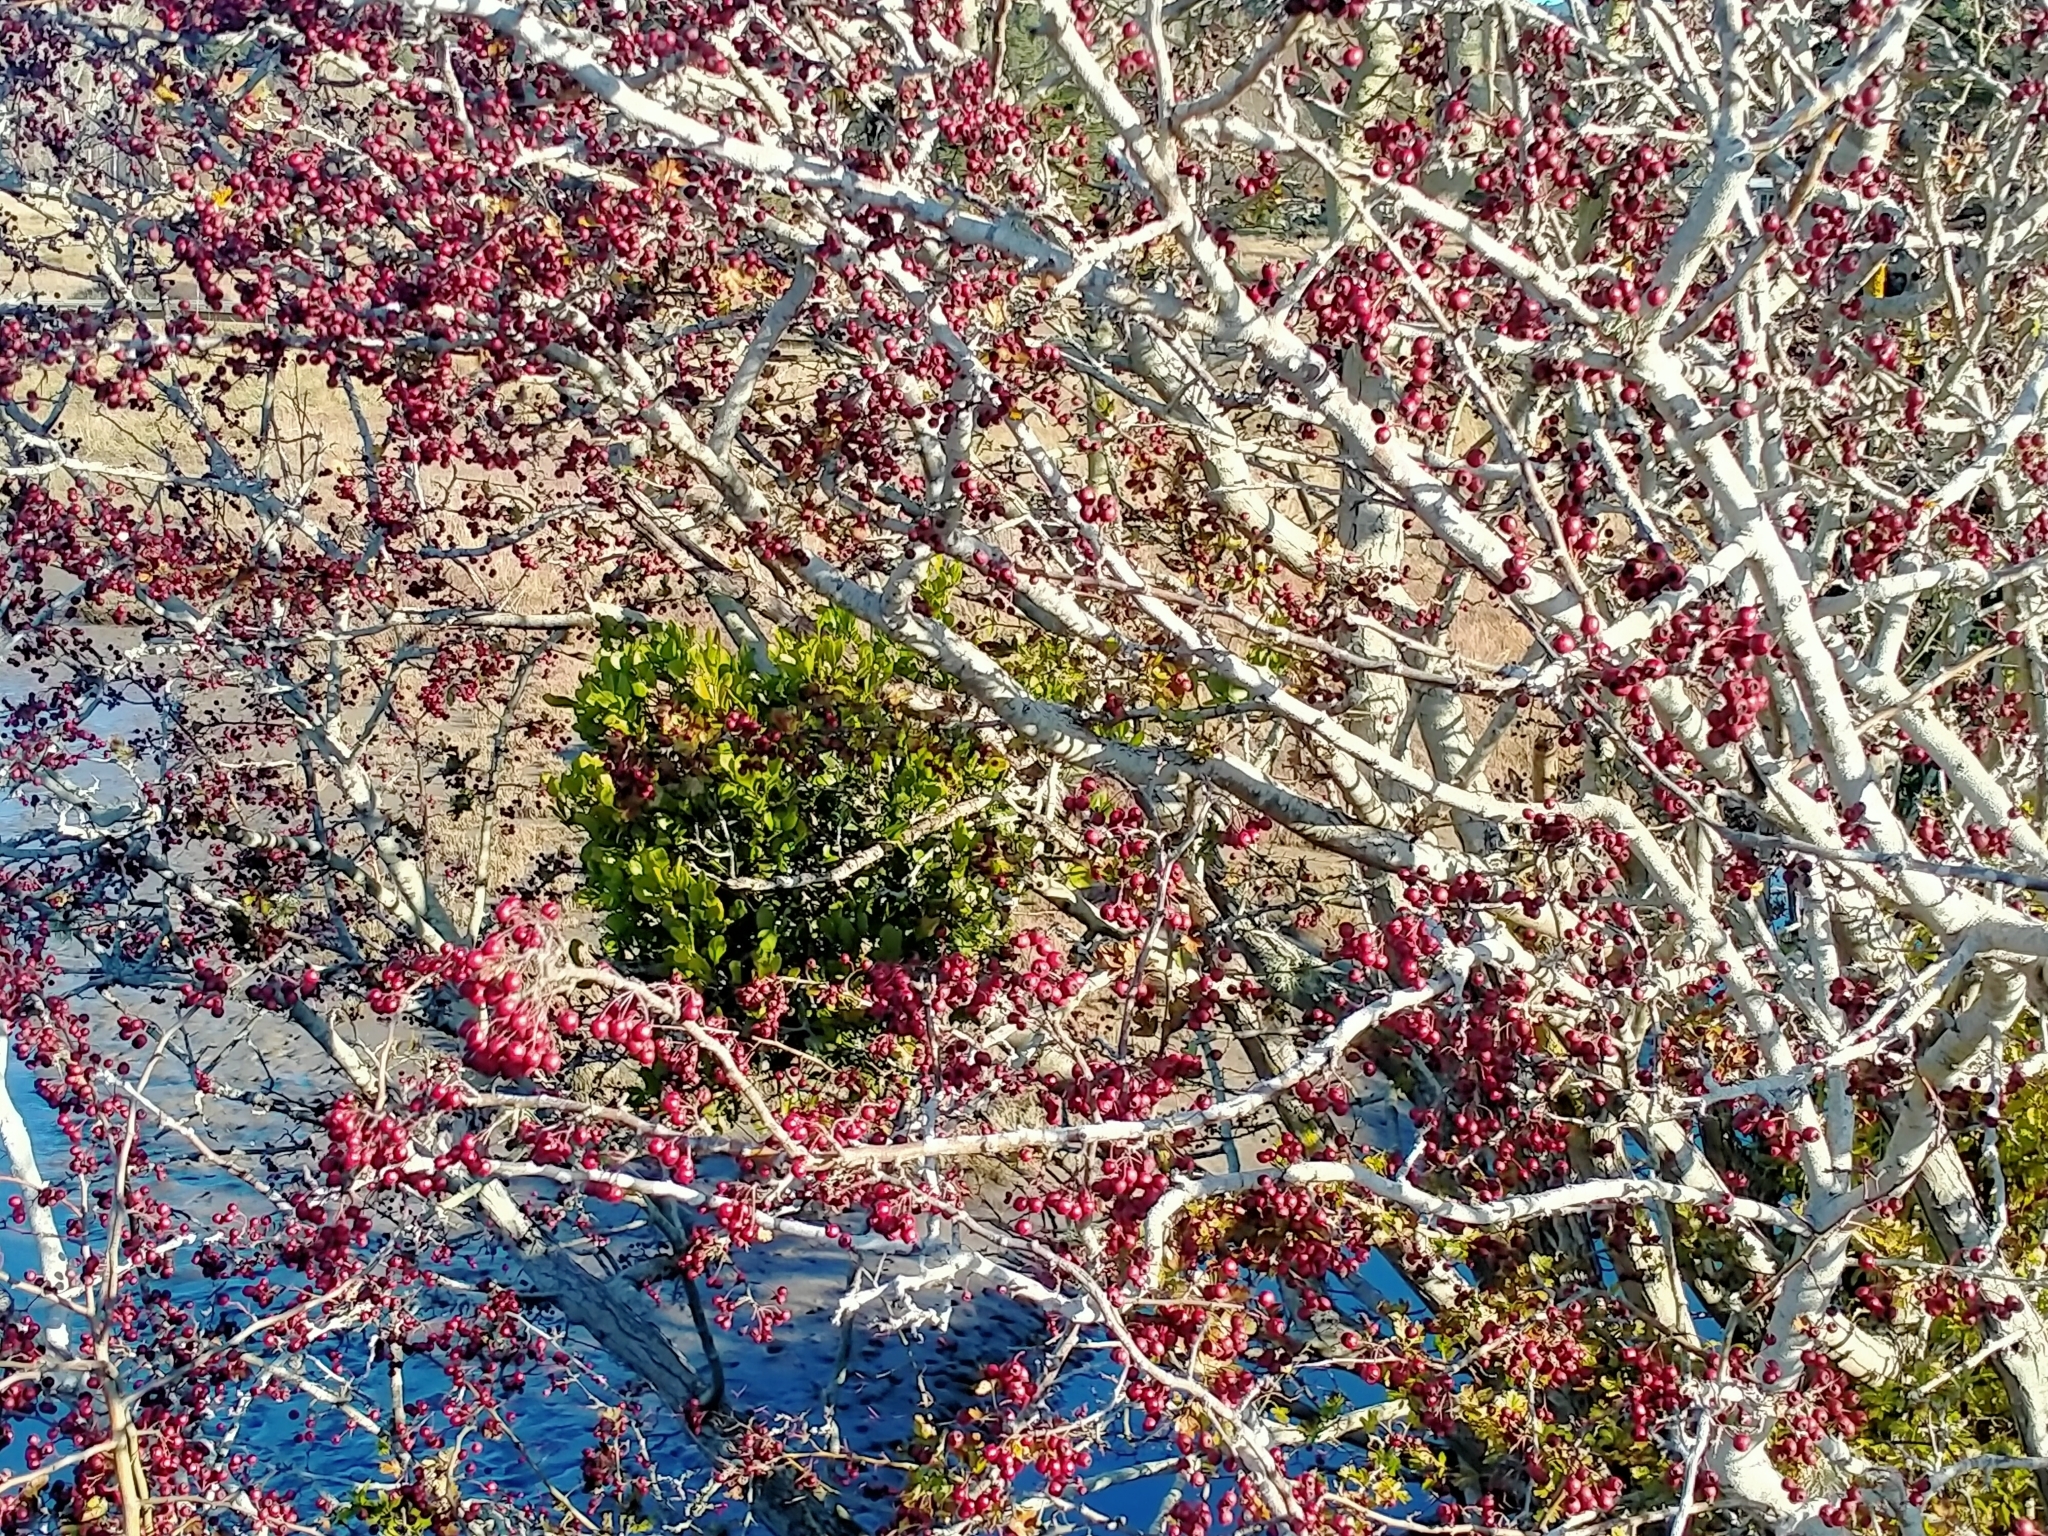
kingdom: Plantae
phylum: Tracheophyta
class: Magnoliopsida
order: Santalales
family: Loranthaceae
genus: Ileostylus
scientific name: Ileostylus micranthus
